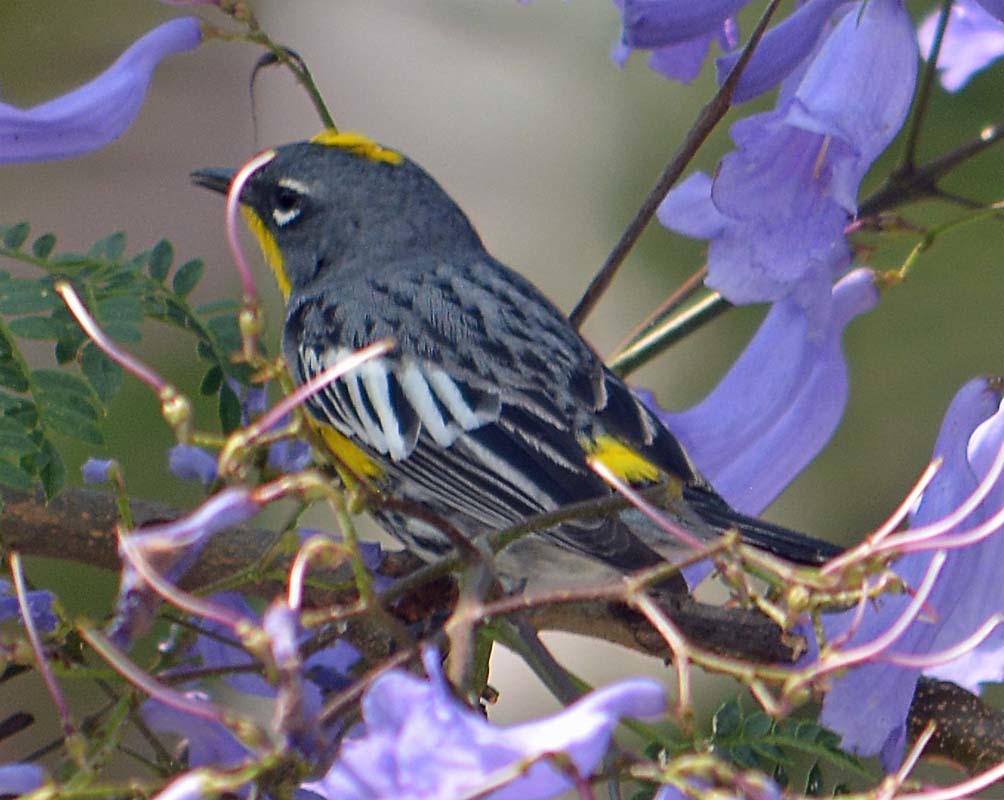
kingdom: Animalia
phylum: Chordata
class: Aves
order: Passeriformes
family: Parulidae
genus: Setophaga
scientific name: Setophaga auduboni
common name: Audubon's warbler
